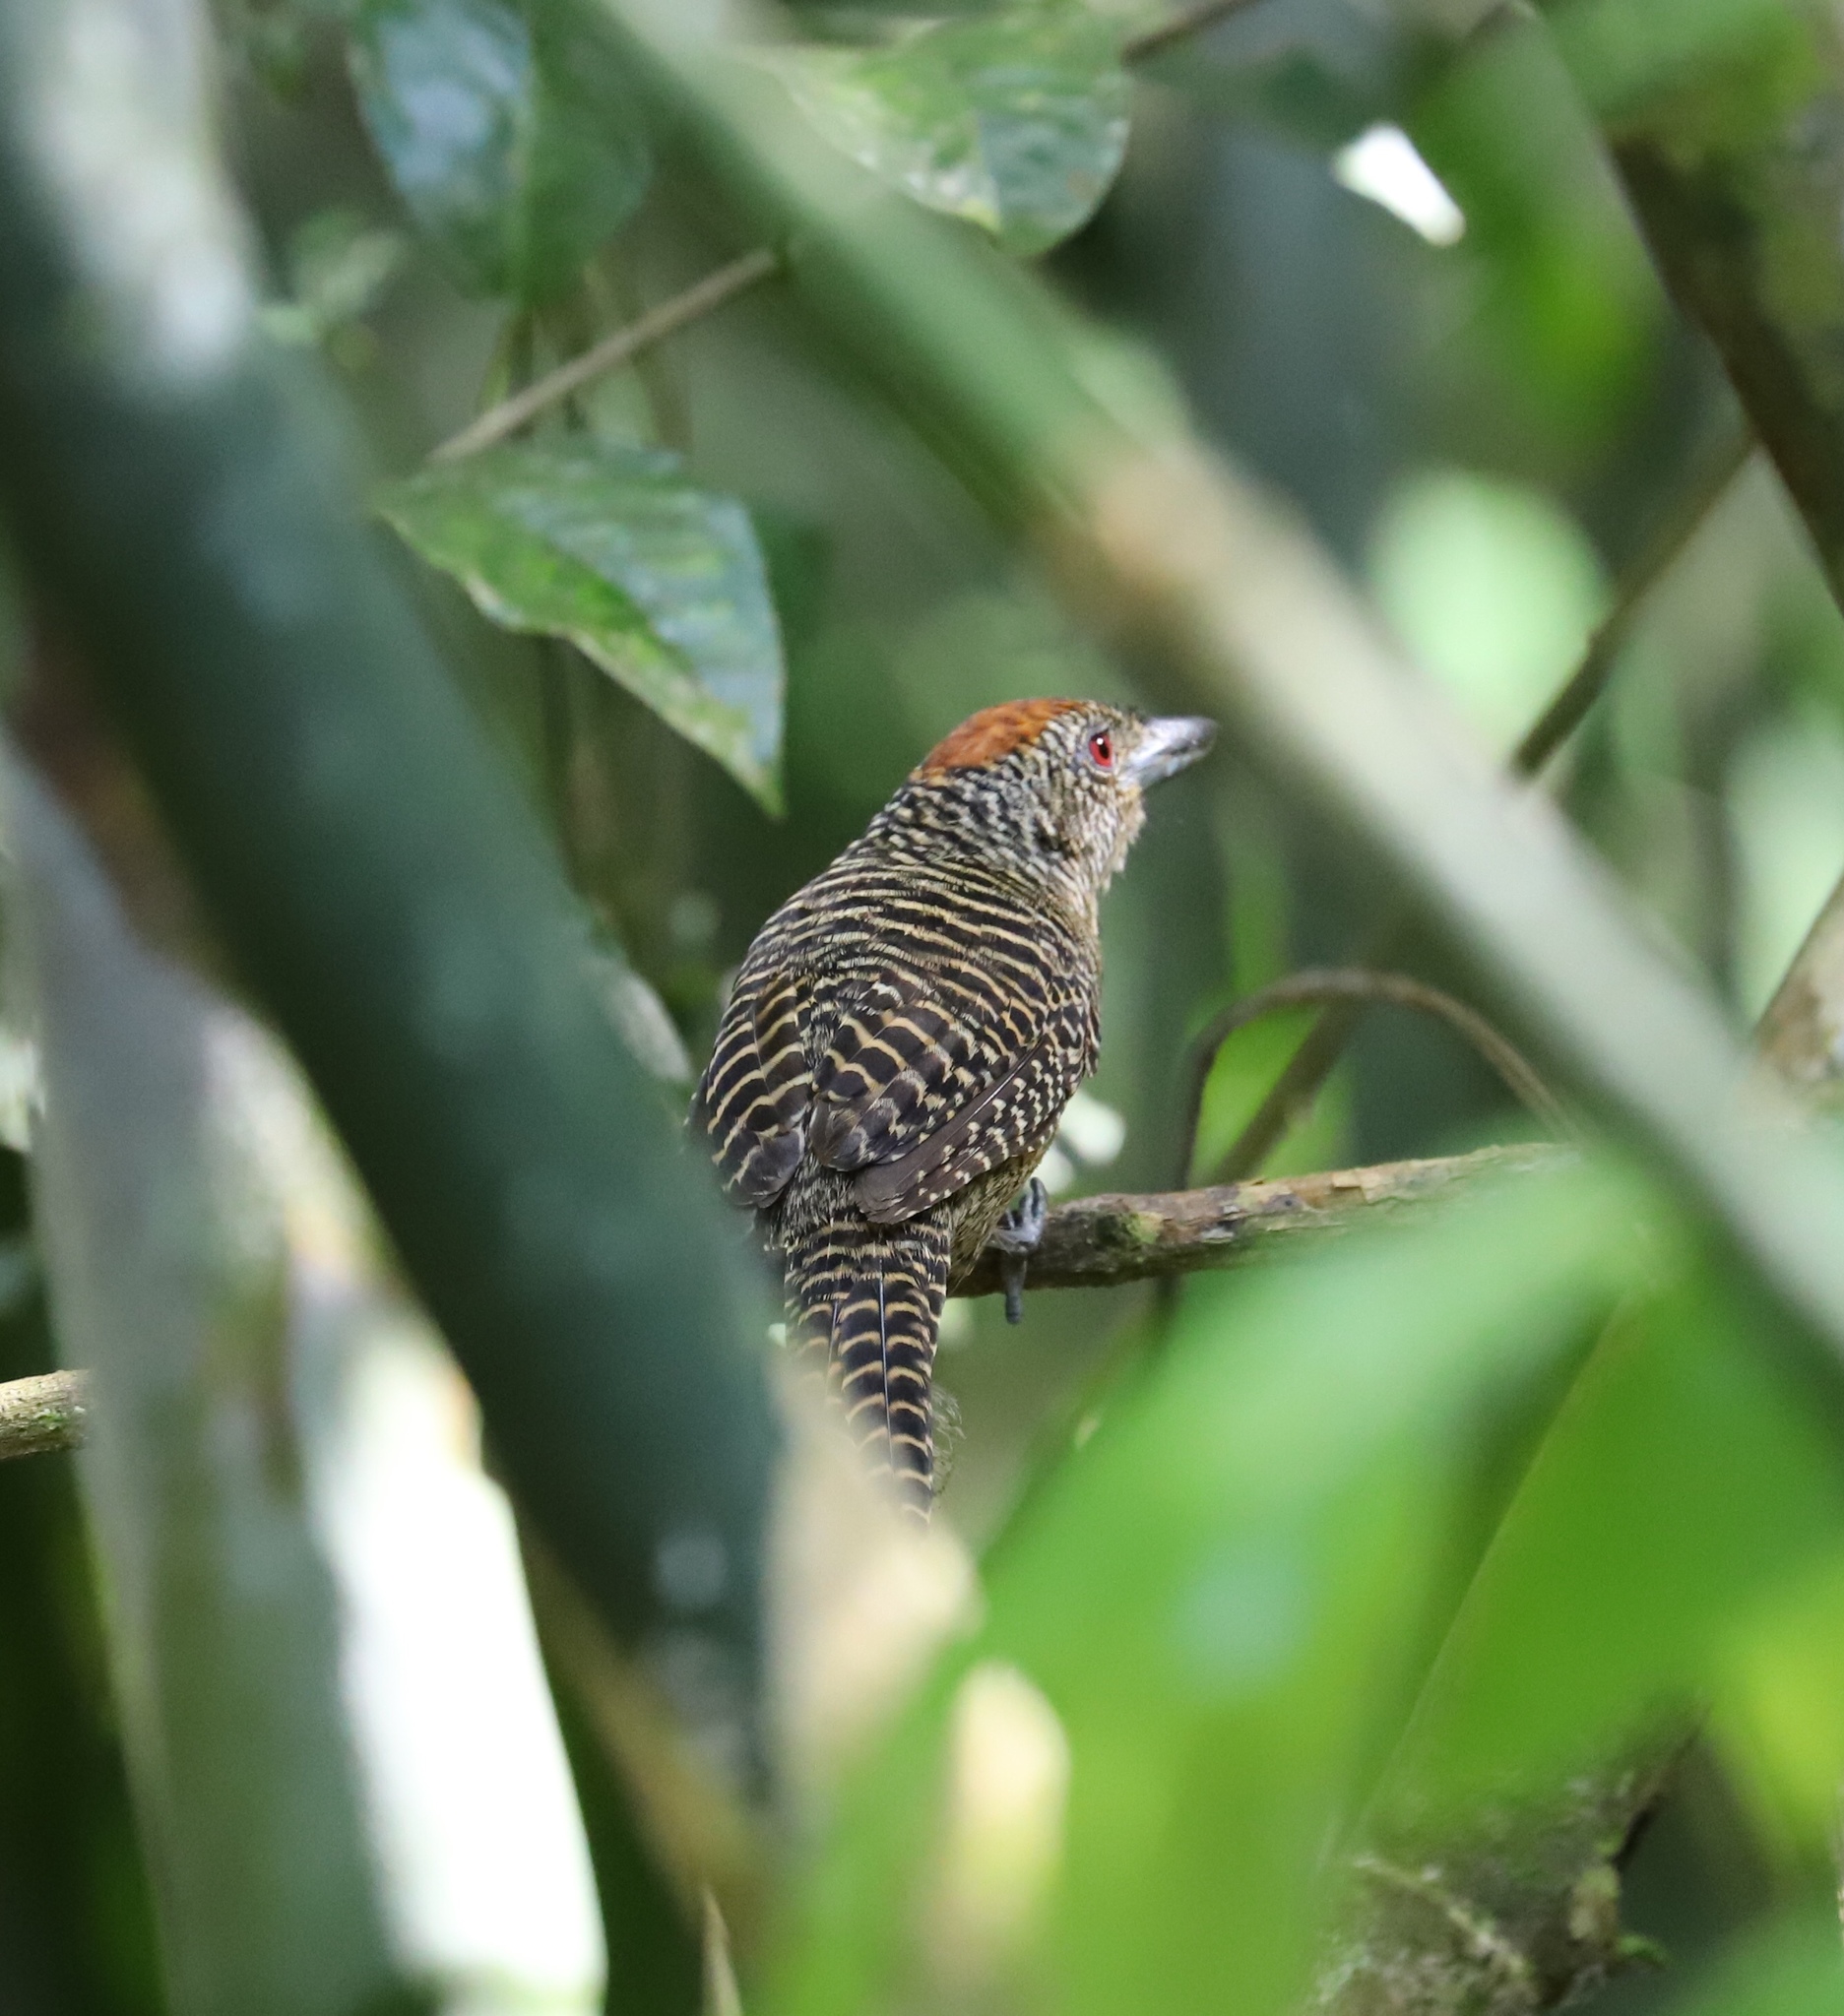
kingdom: Animalia
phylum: Chordata
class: Aves
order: Passeriformes
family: Thamnophilidae
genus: Cymbilaimus
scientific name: Cymbilaimus lineatus
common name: Fasciated antshrike
